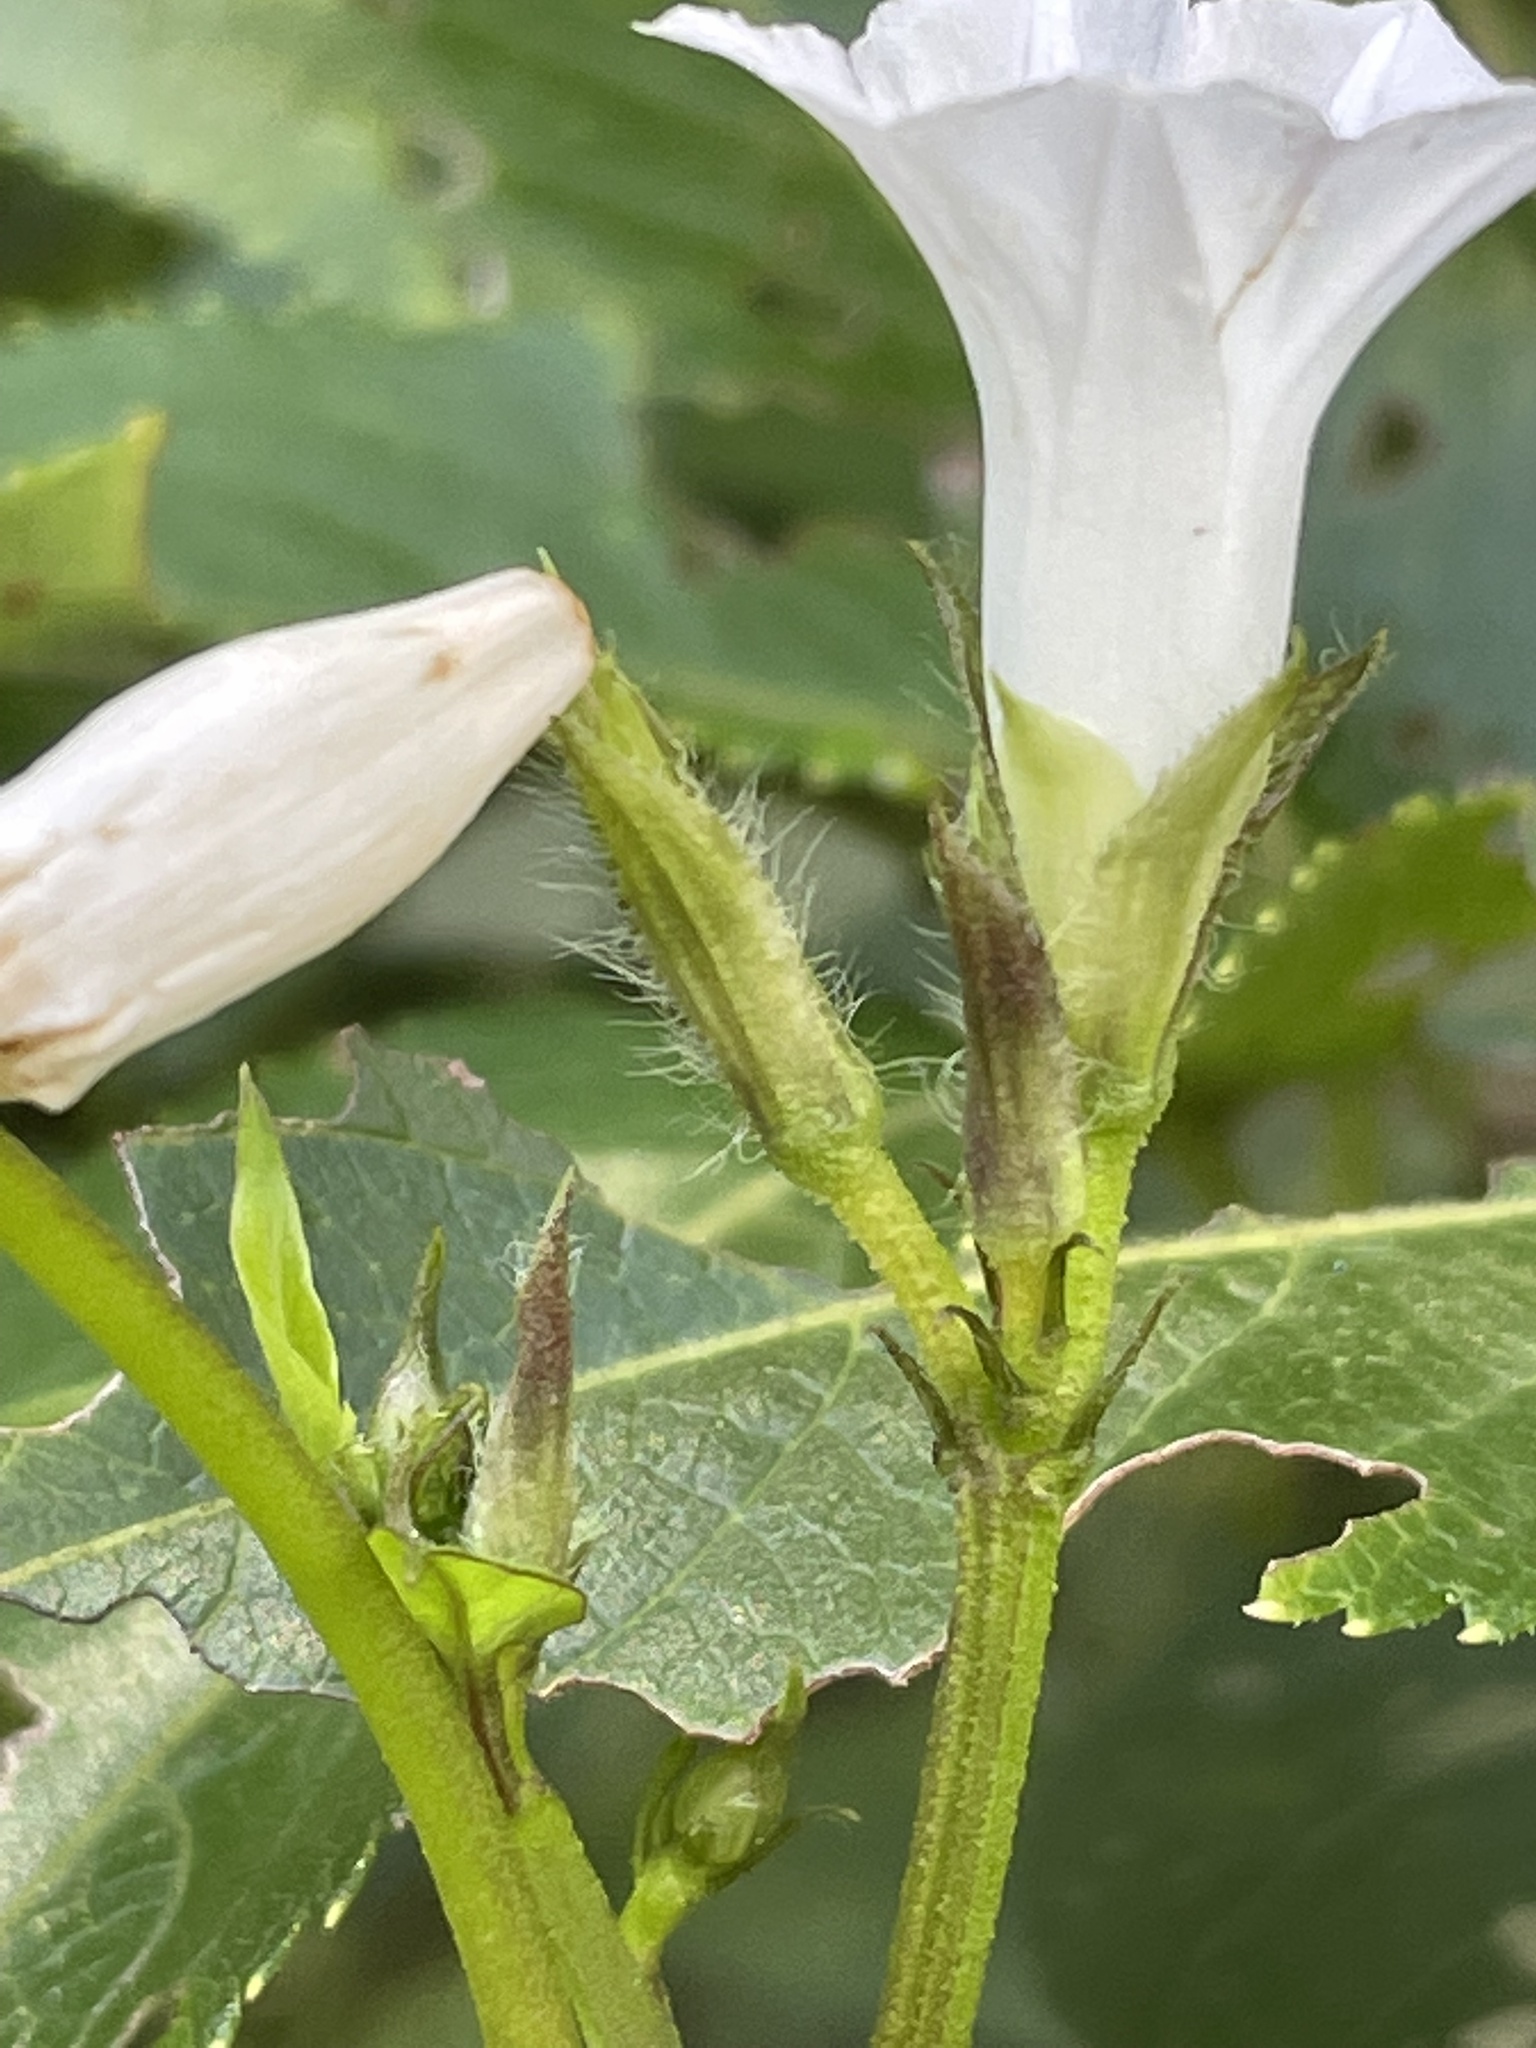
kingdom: Plantae
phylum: Tracheophyta
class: Magnoliopsida
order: Solanales
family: Convolvulaceae
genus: Ipomoea
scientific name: Ipomoea lacunosa
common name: White morning-glory
